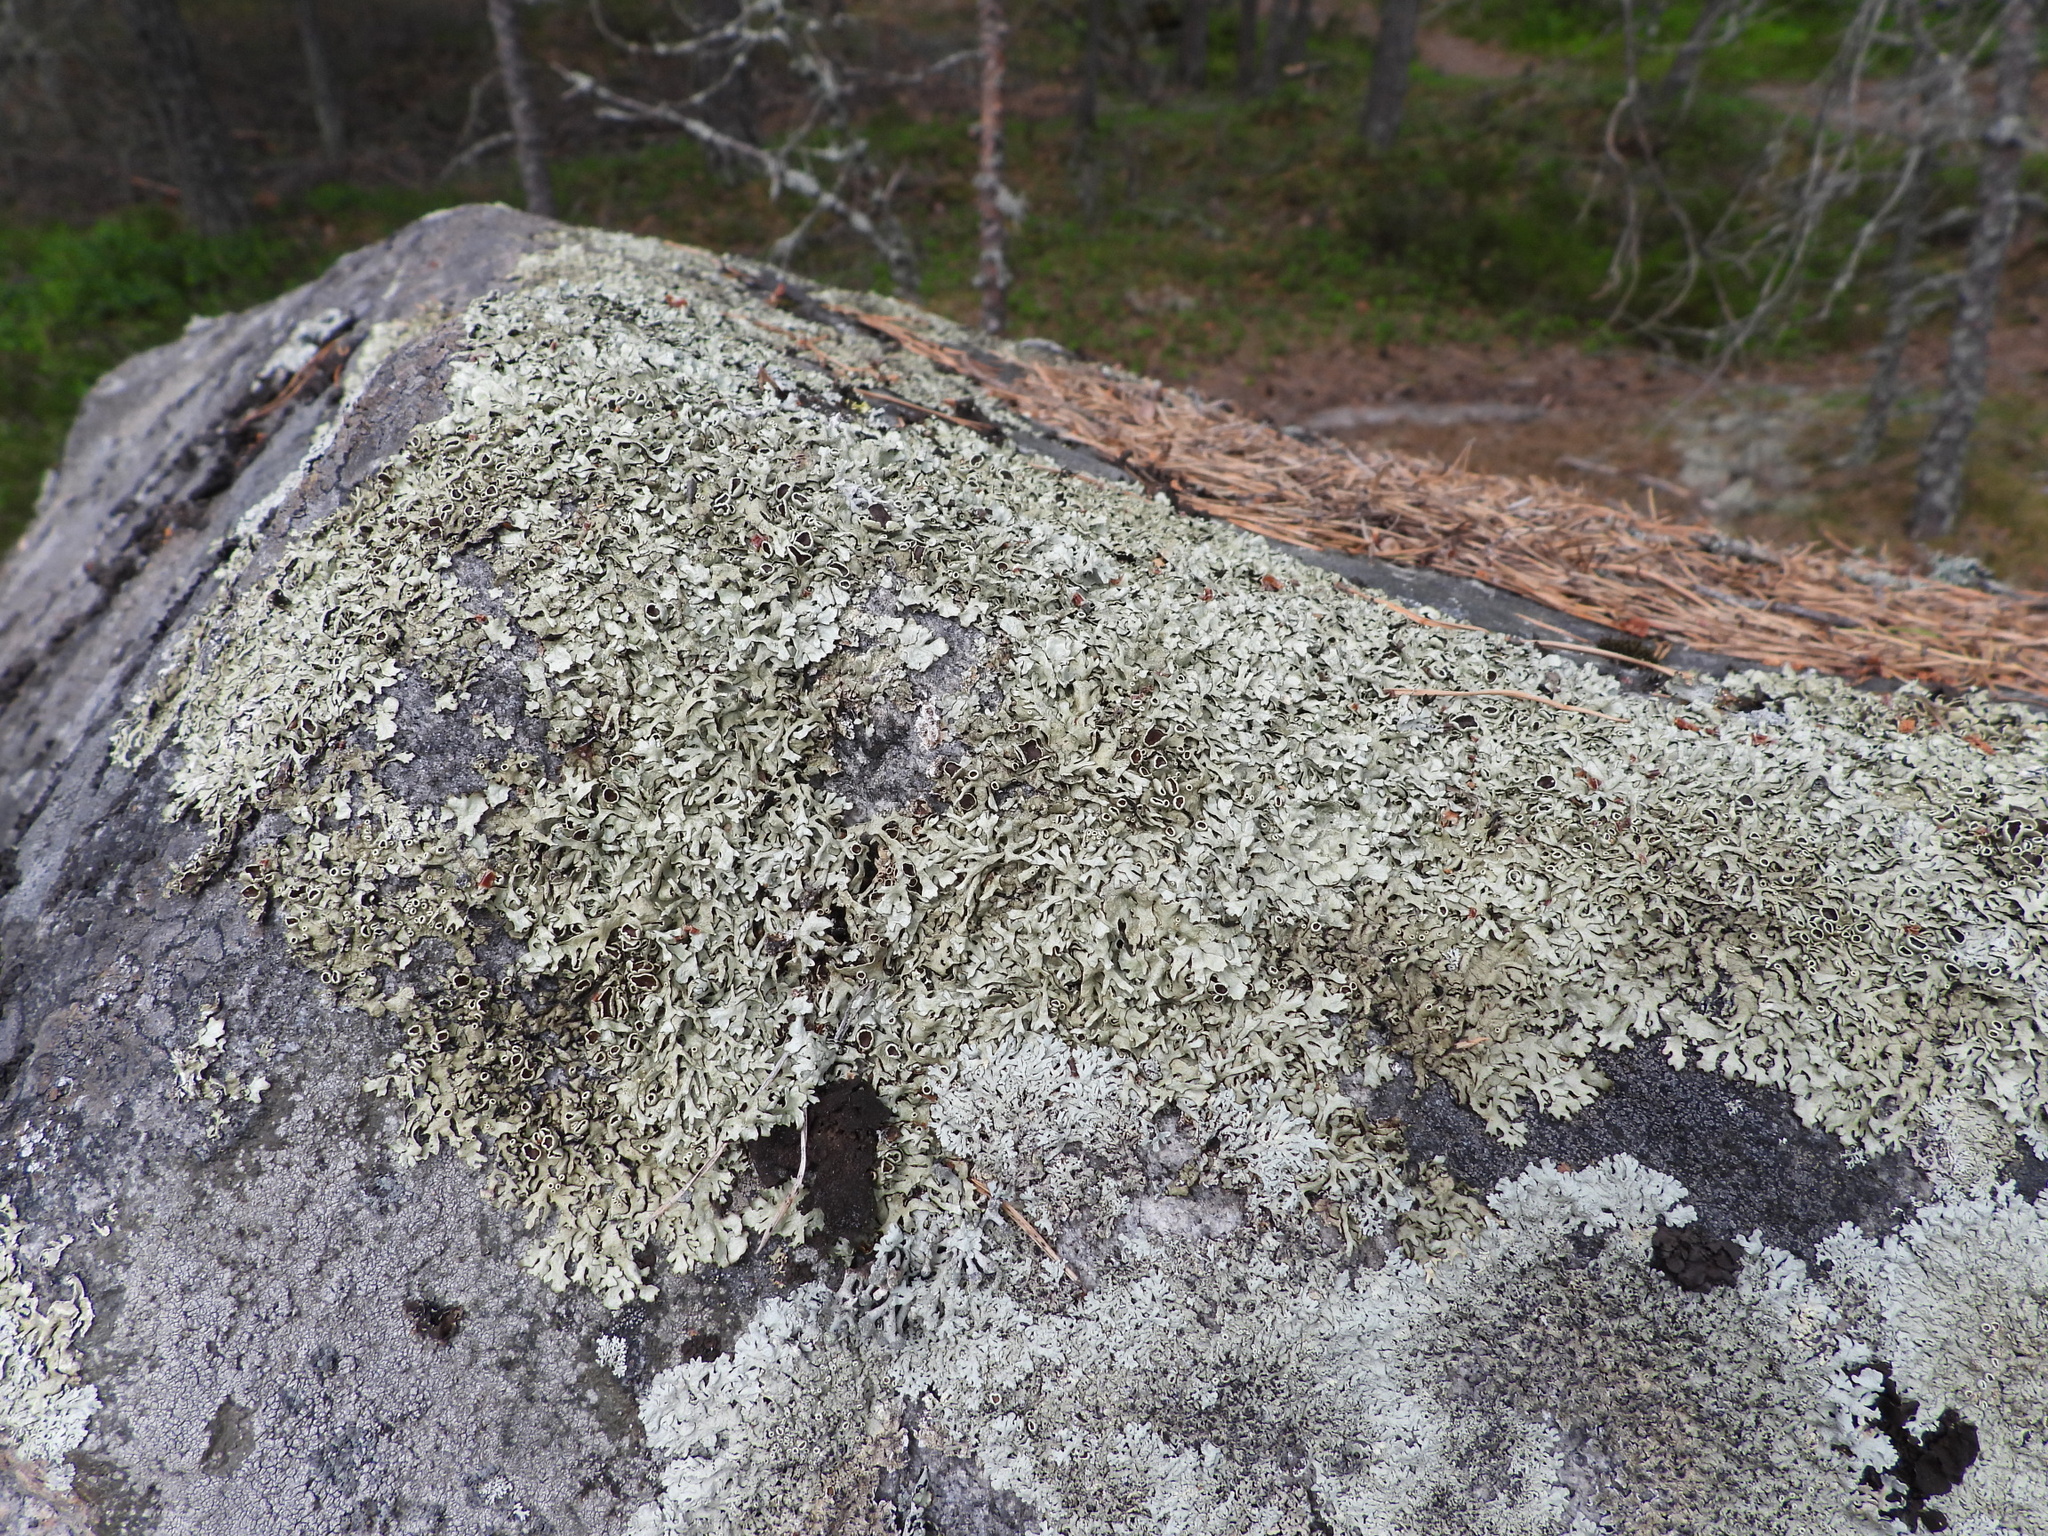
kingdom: Fungi
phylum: Ascomycota
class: Lecanoromycetes
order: Lecanorales
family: Parmeliaceae
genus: Xanthoparmelia
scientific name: Xanthoparmelia stenophylla
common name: Shingled rock shield
